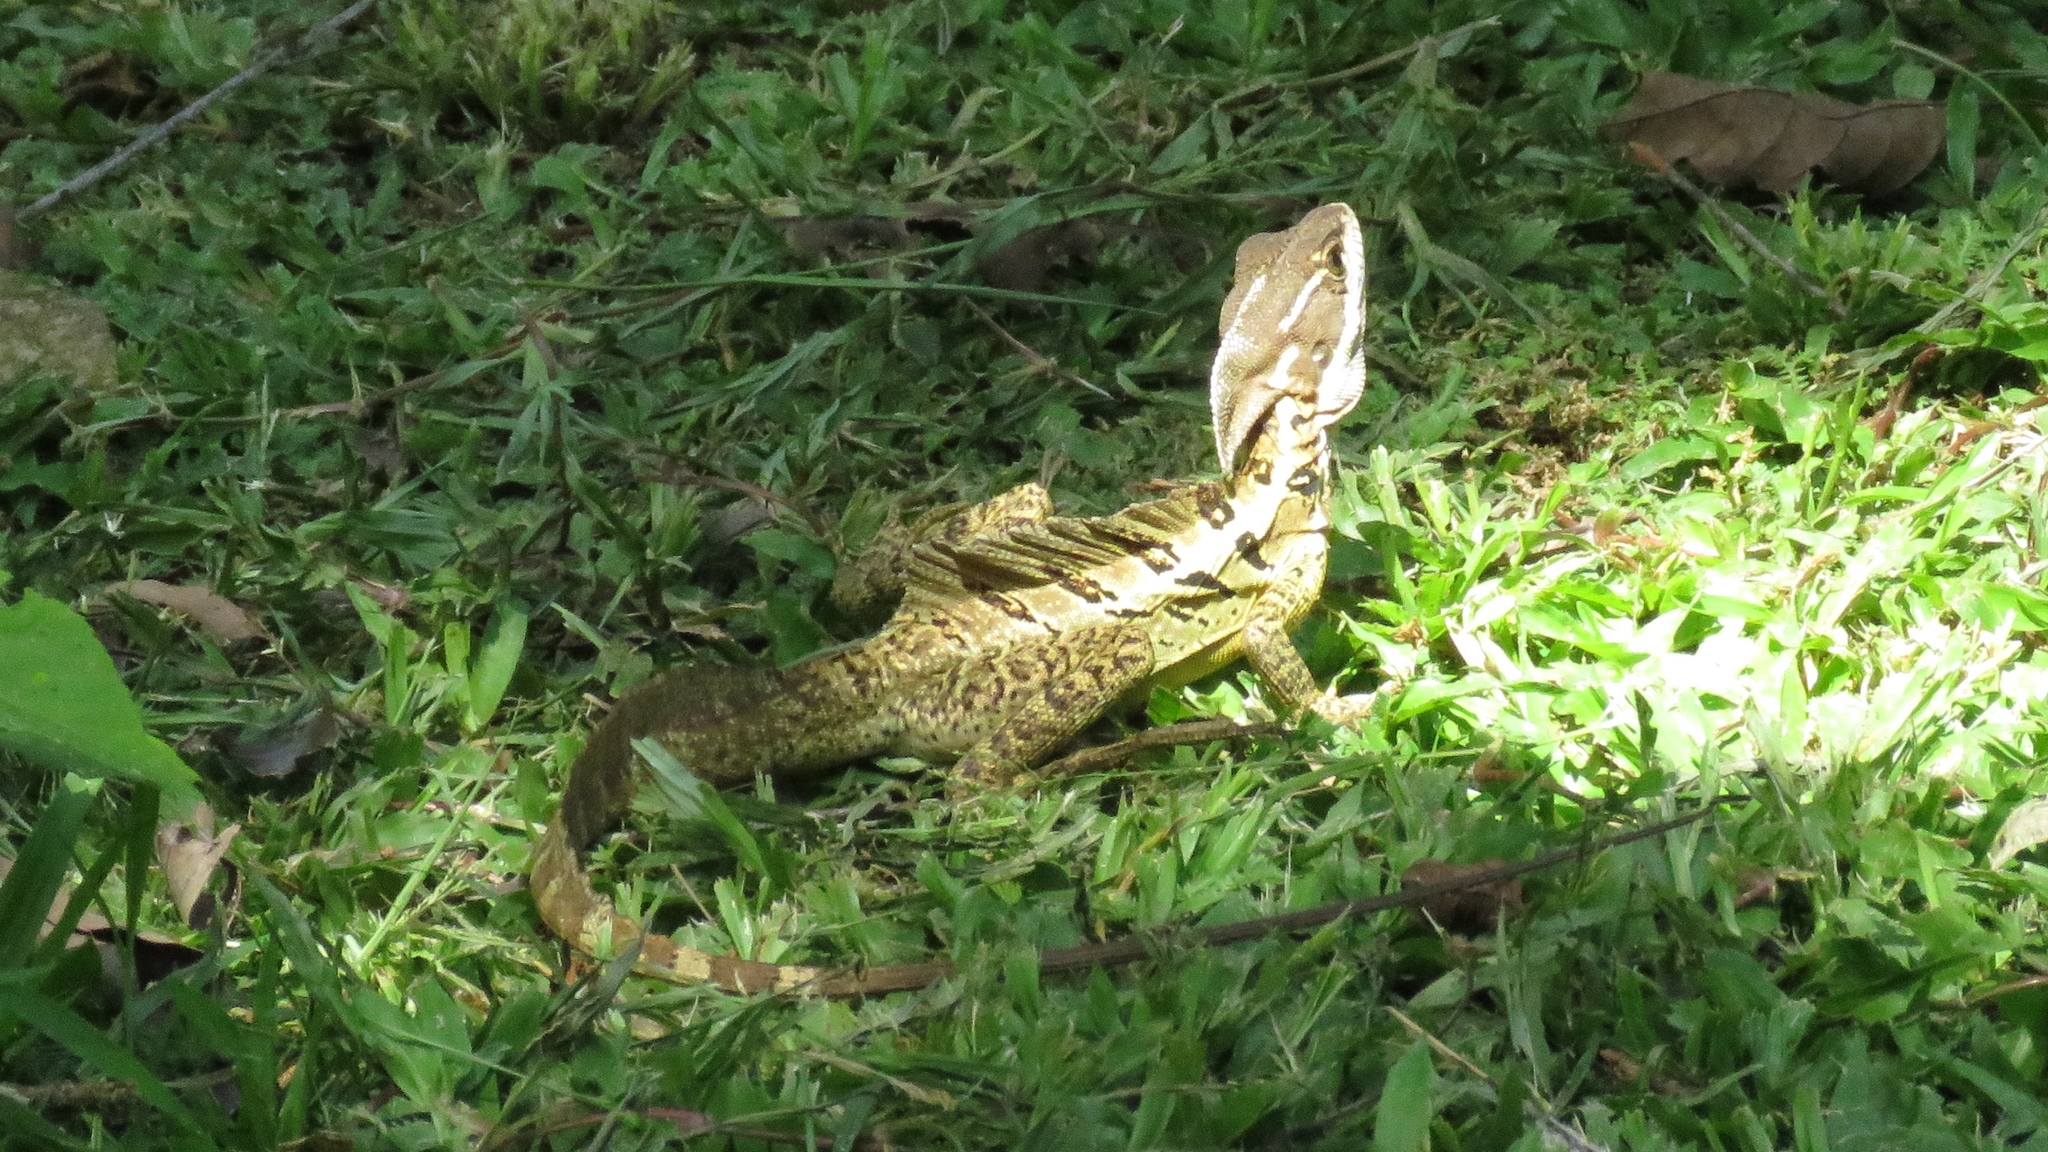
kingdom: Animalia
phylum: Chordata
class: Squamata
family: Corytophanidae
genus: Basiliscus
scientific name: Basiliscus basiliscus
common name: Common basilisk
